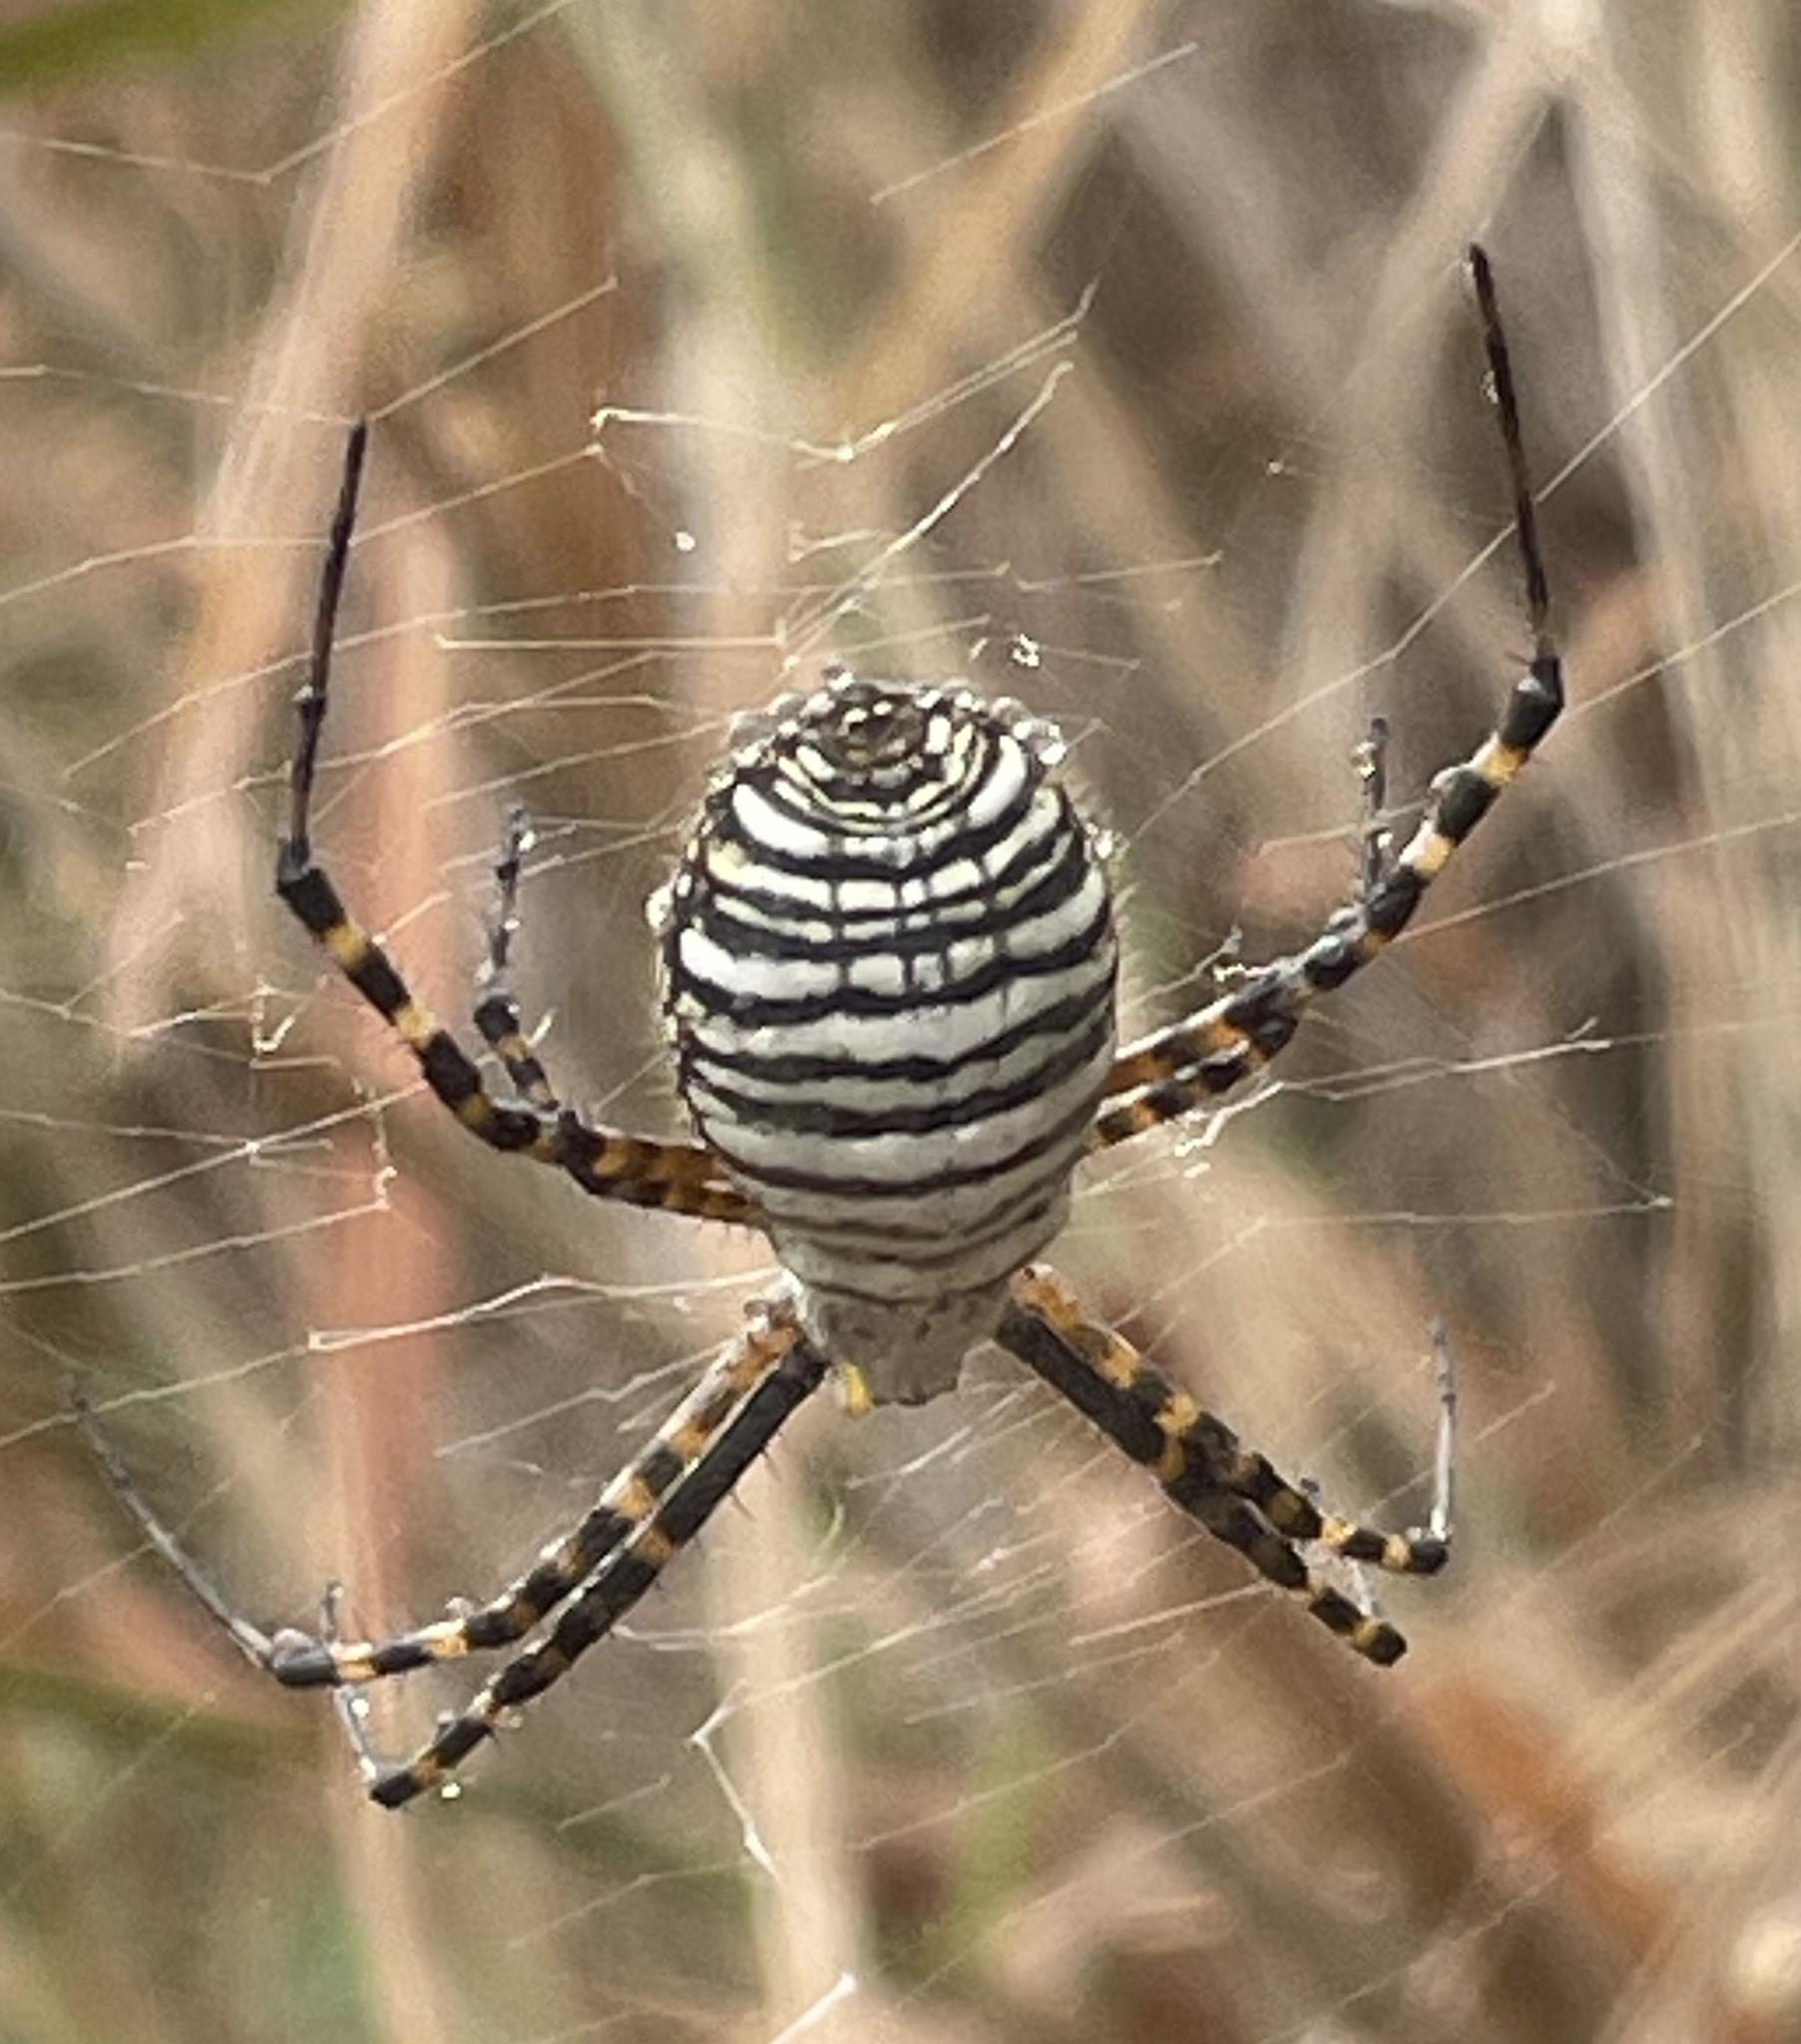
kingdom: Animalia
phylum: Arthropoda
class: Arachnida
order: Araneae
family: Araneidae
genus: Argiope
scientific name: Argiope trifasciata
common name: Banded garden spider
